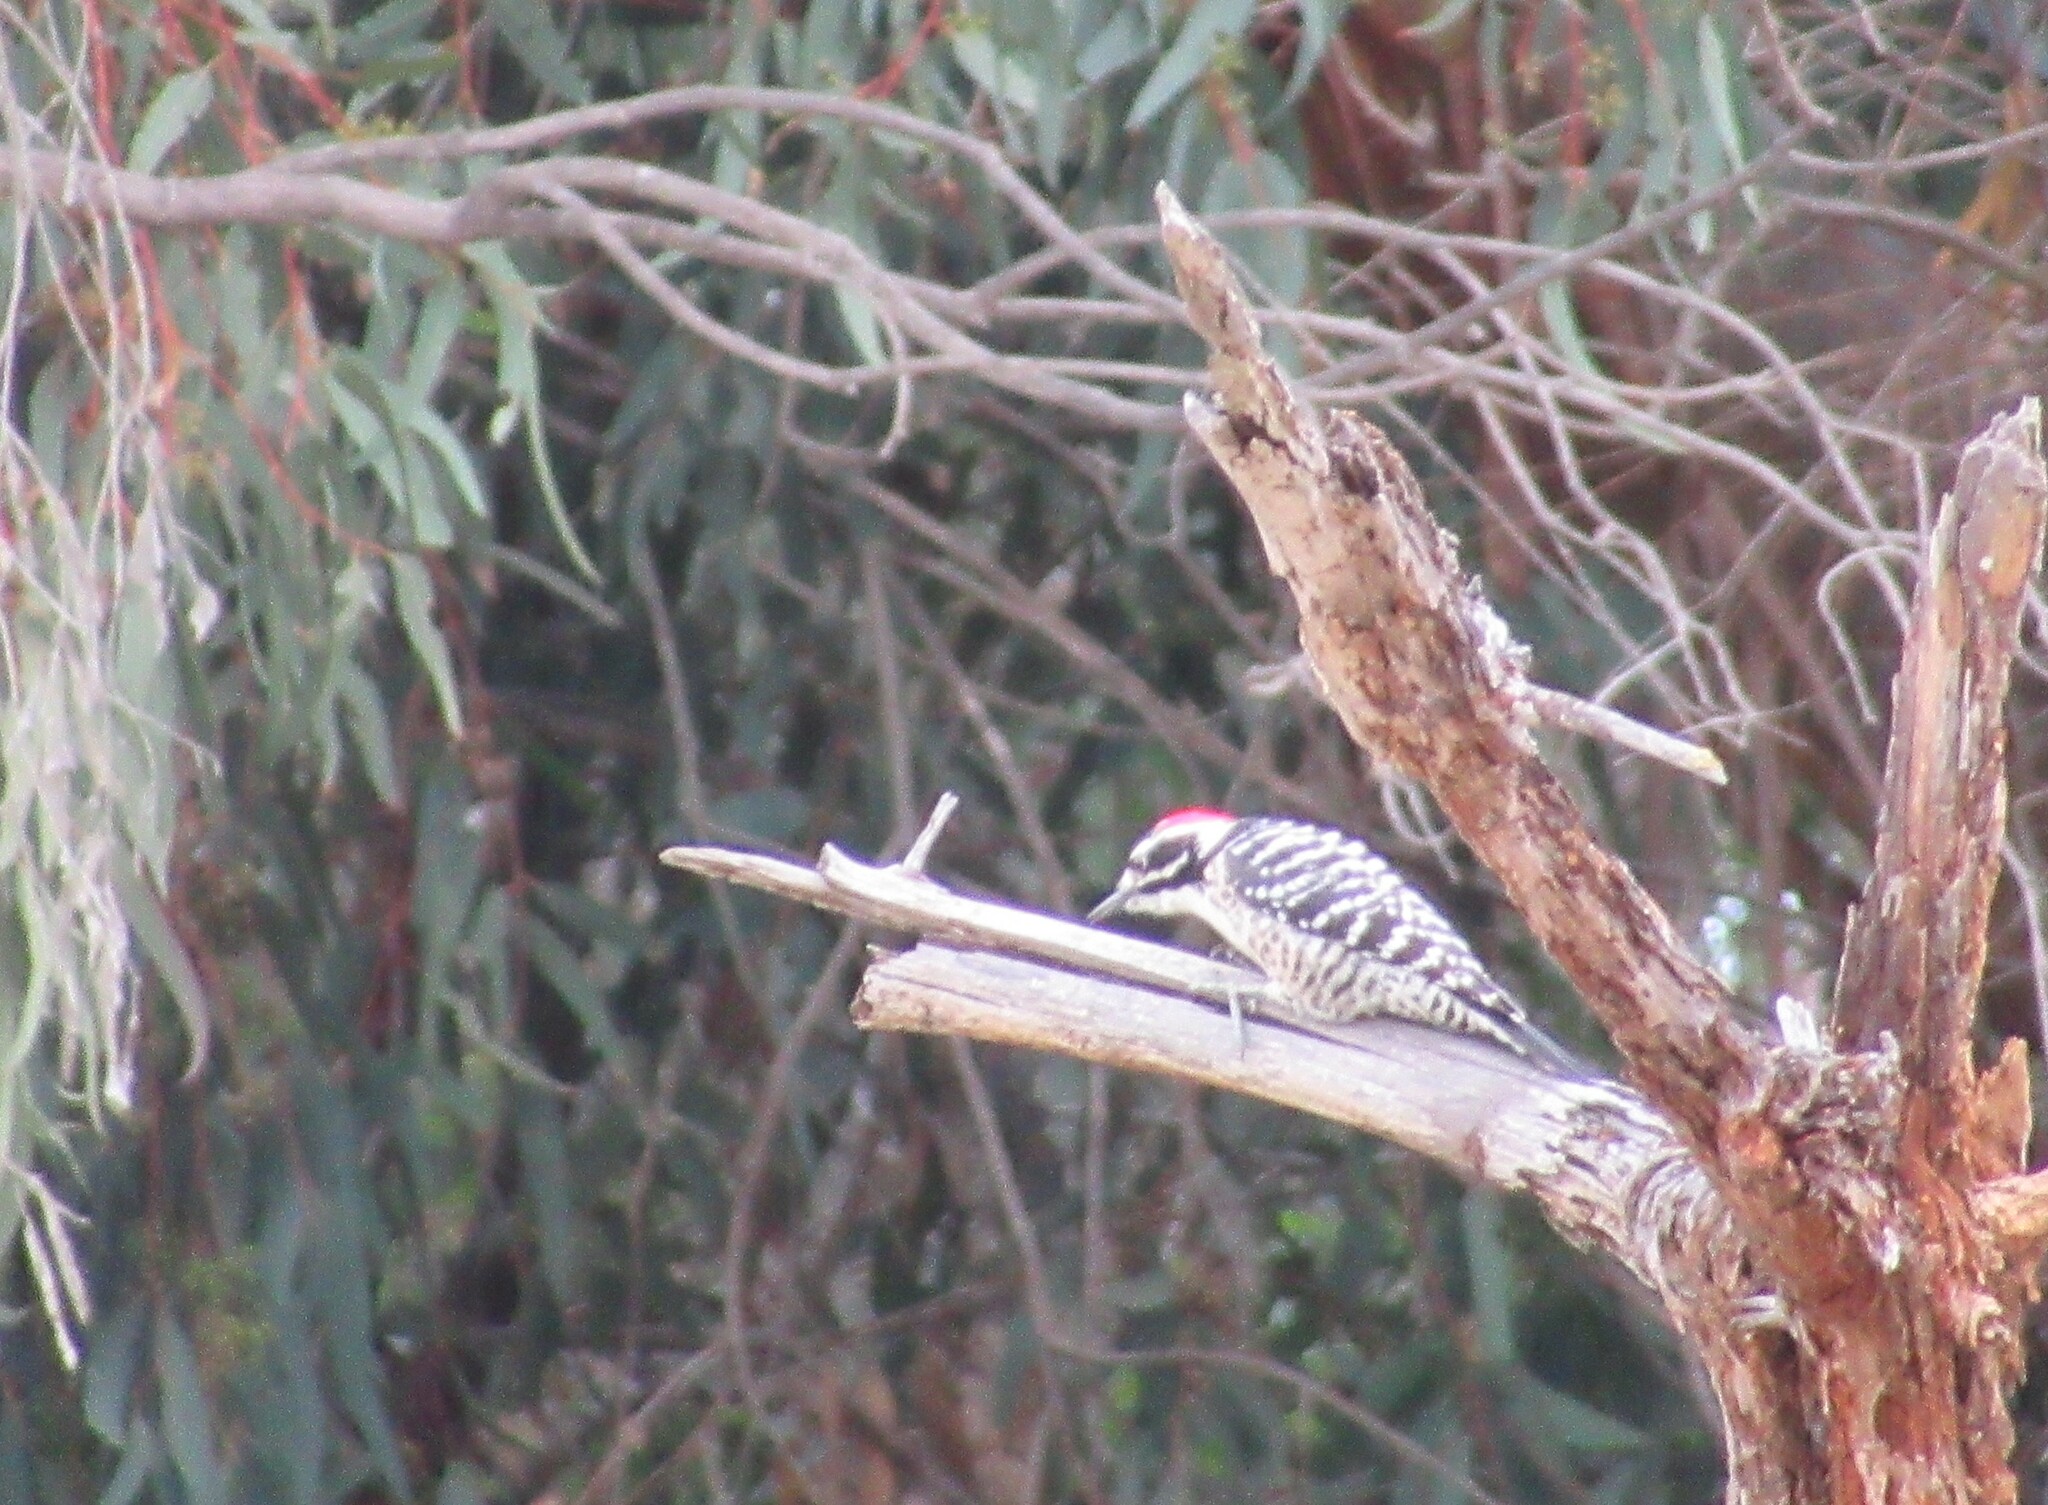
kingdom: Animalia
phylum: Chordata
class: Aves
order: Piciformes
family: Picidae
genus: Dryobates
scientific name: Dryobates nuttallii
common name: Nuttall's woodpecker
